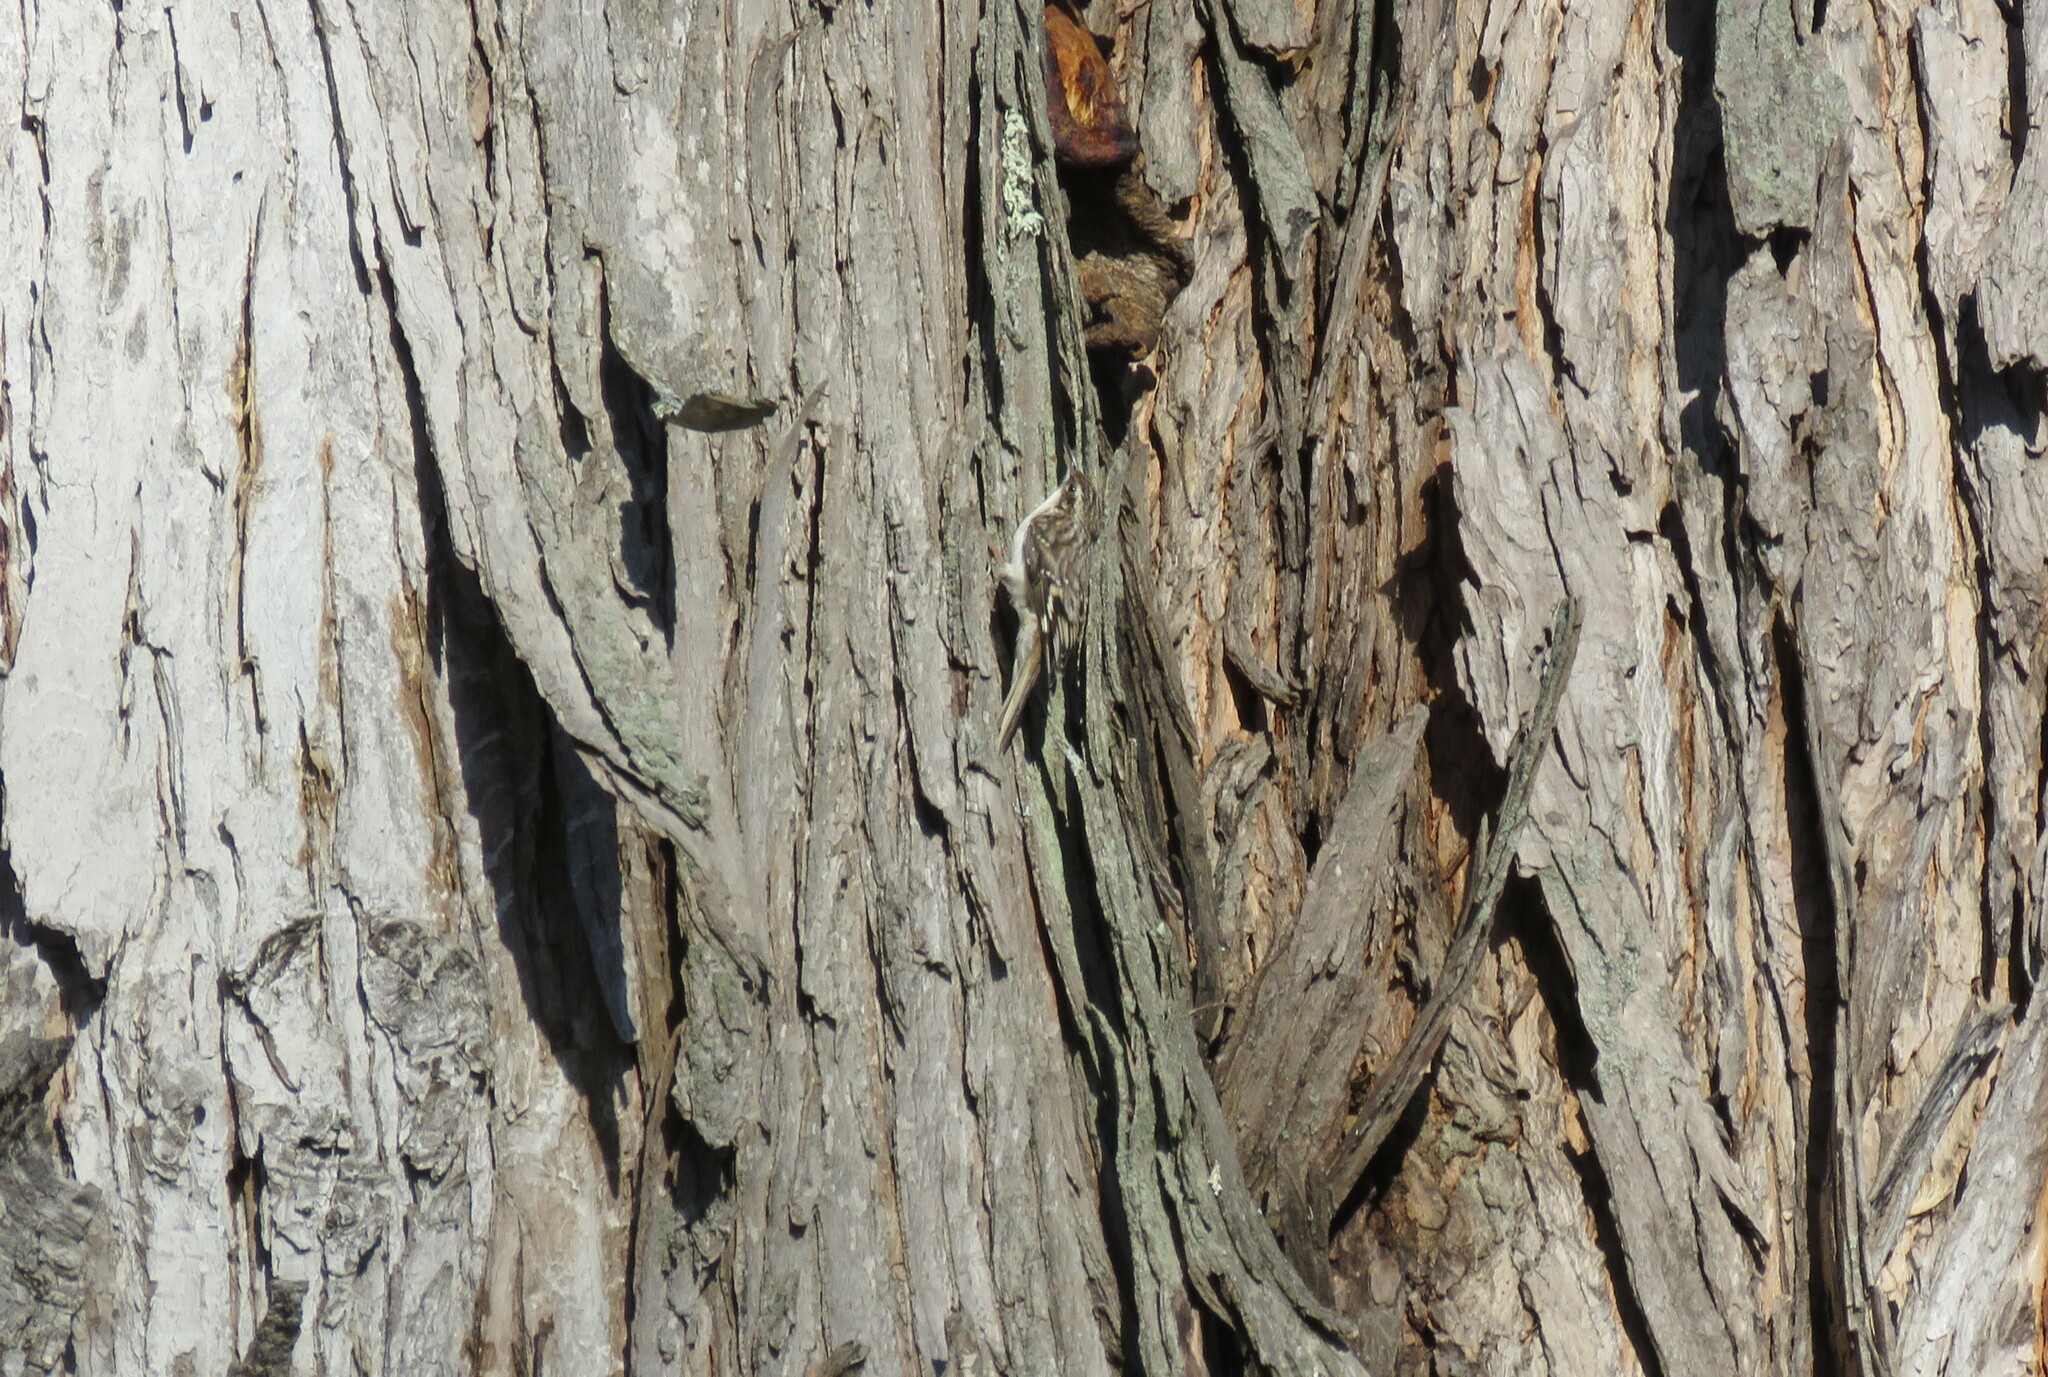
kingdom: Animalia
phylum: Chordata
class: Aves
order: Passeriformes
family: Certhiidae
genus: Certhia
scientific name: Certhia americana
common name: Brown creeper
